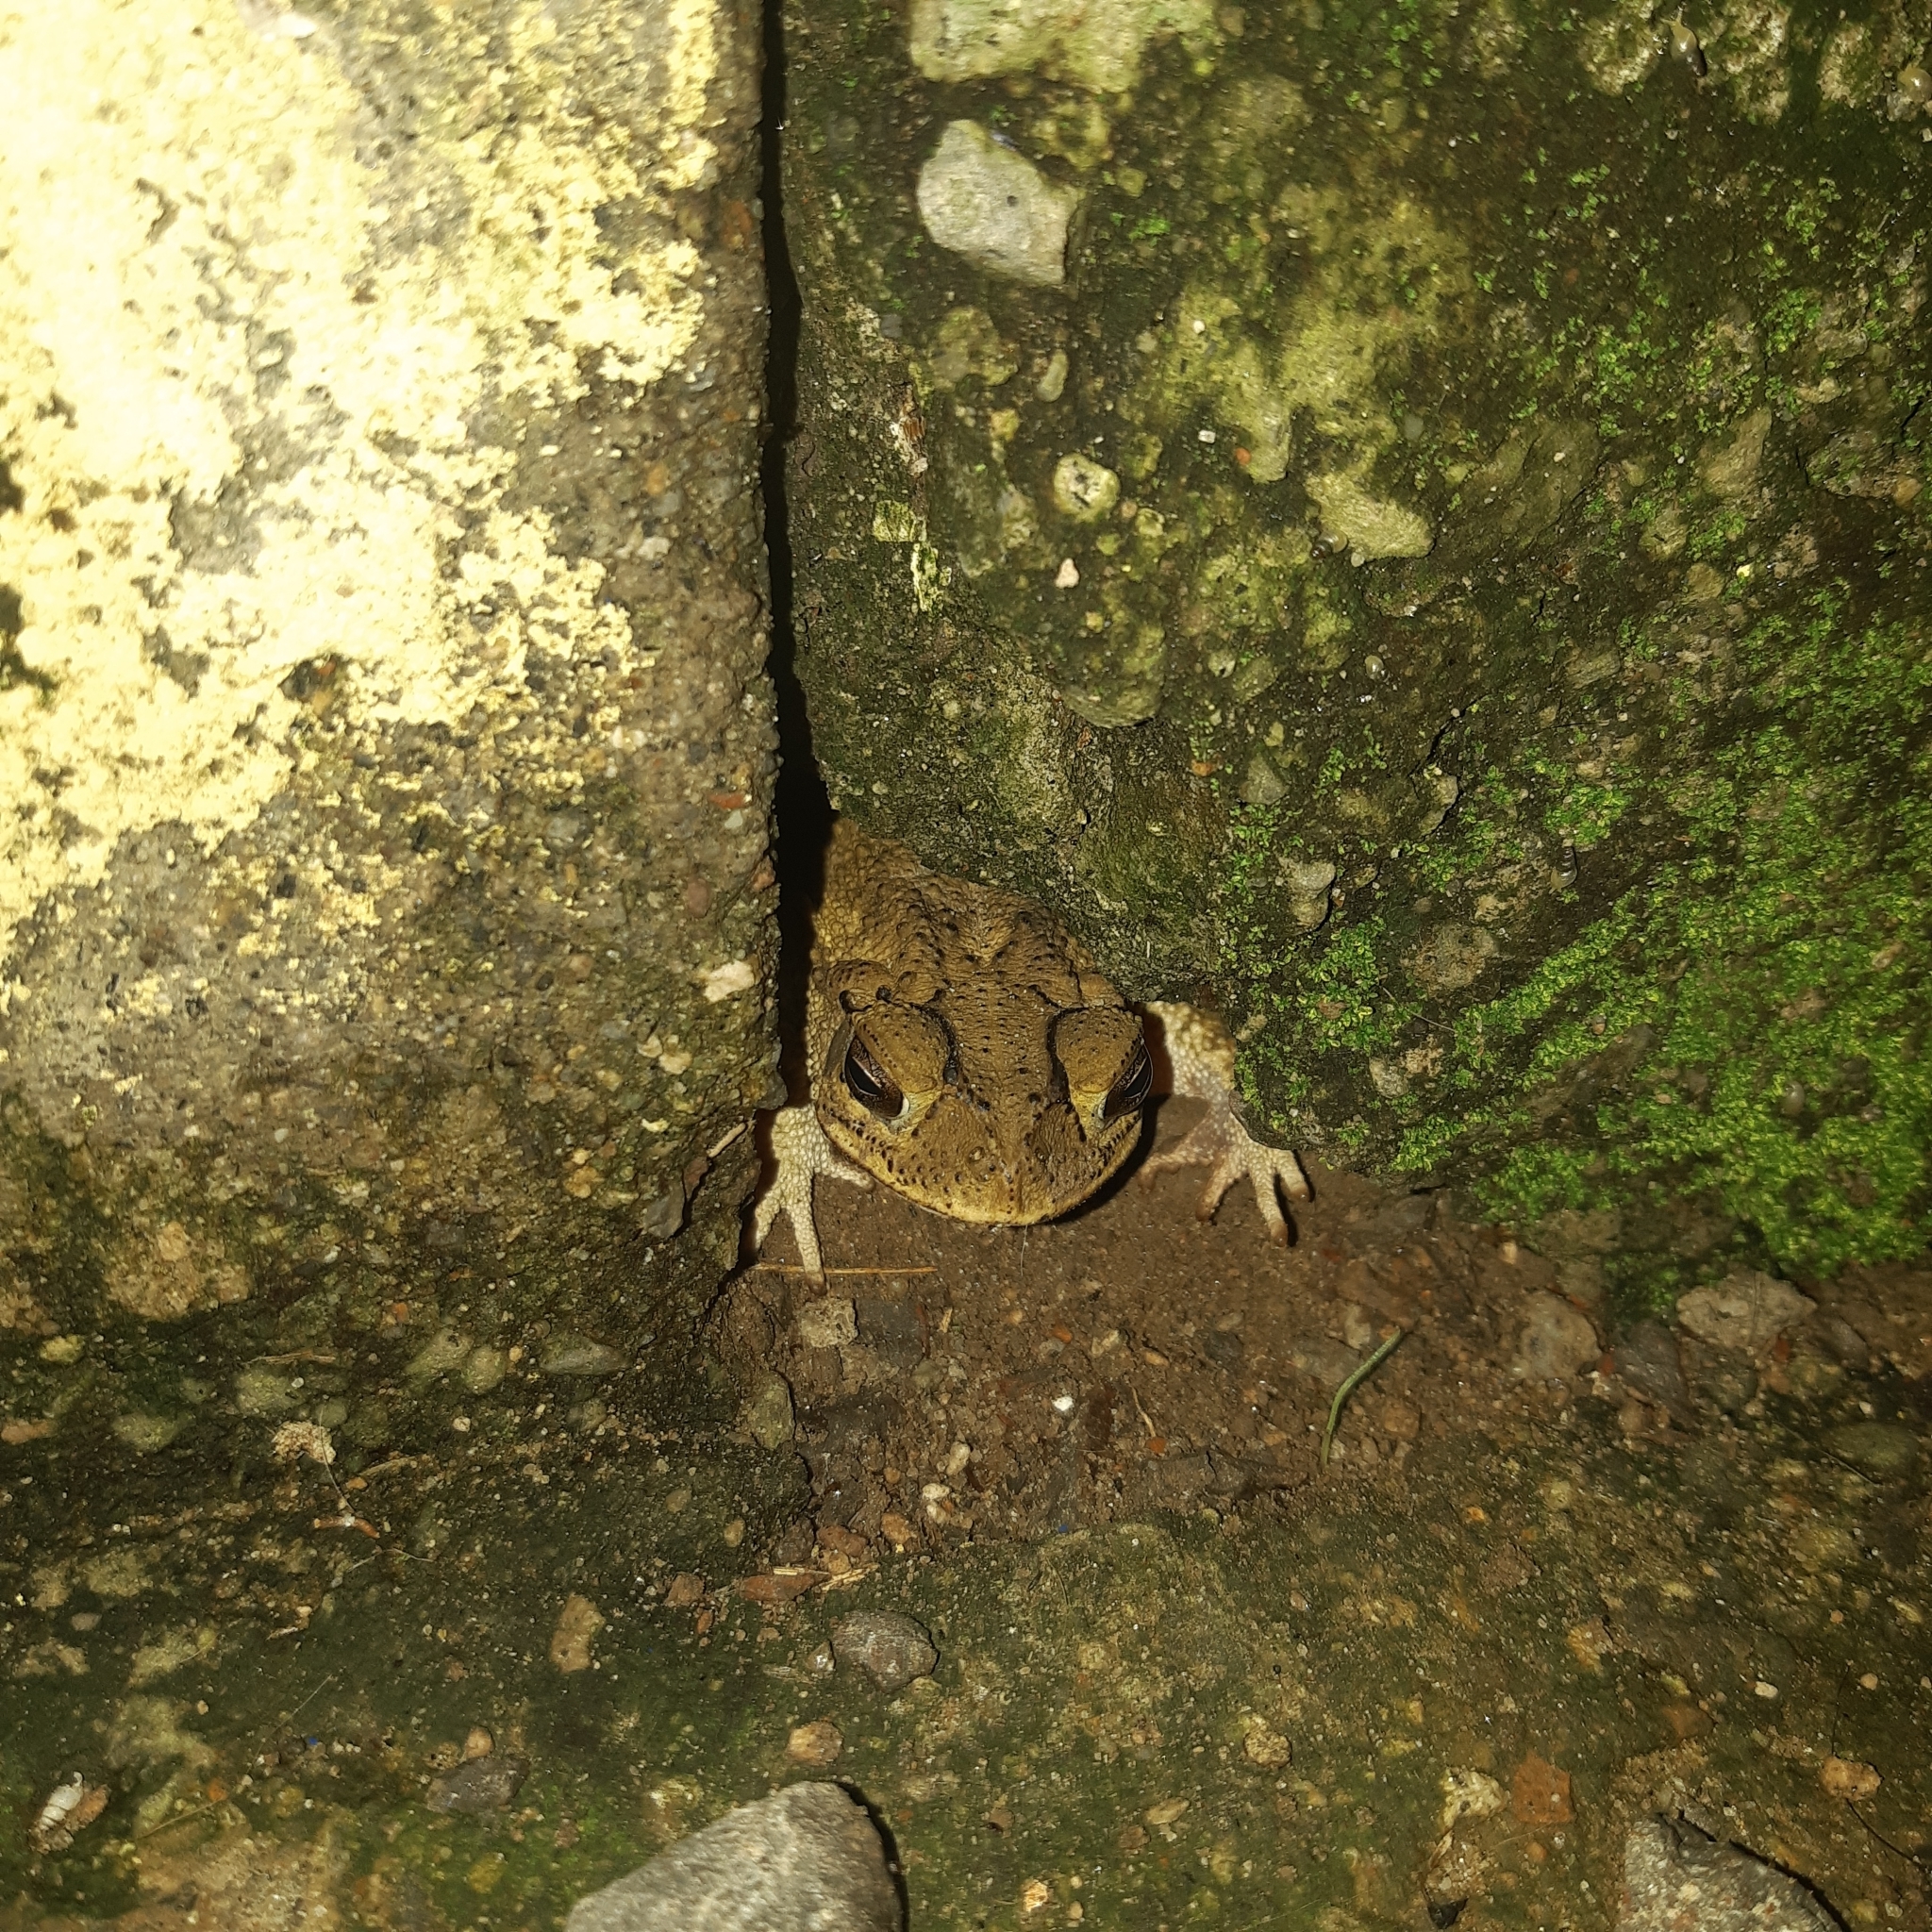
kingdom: Animalia
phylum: Chordata
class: Amphibia
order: Anura
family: Bufonidae
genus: Incilius
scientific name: Incilius luetkenii
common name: Yellow toad
